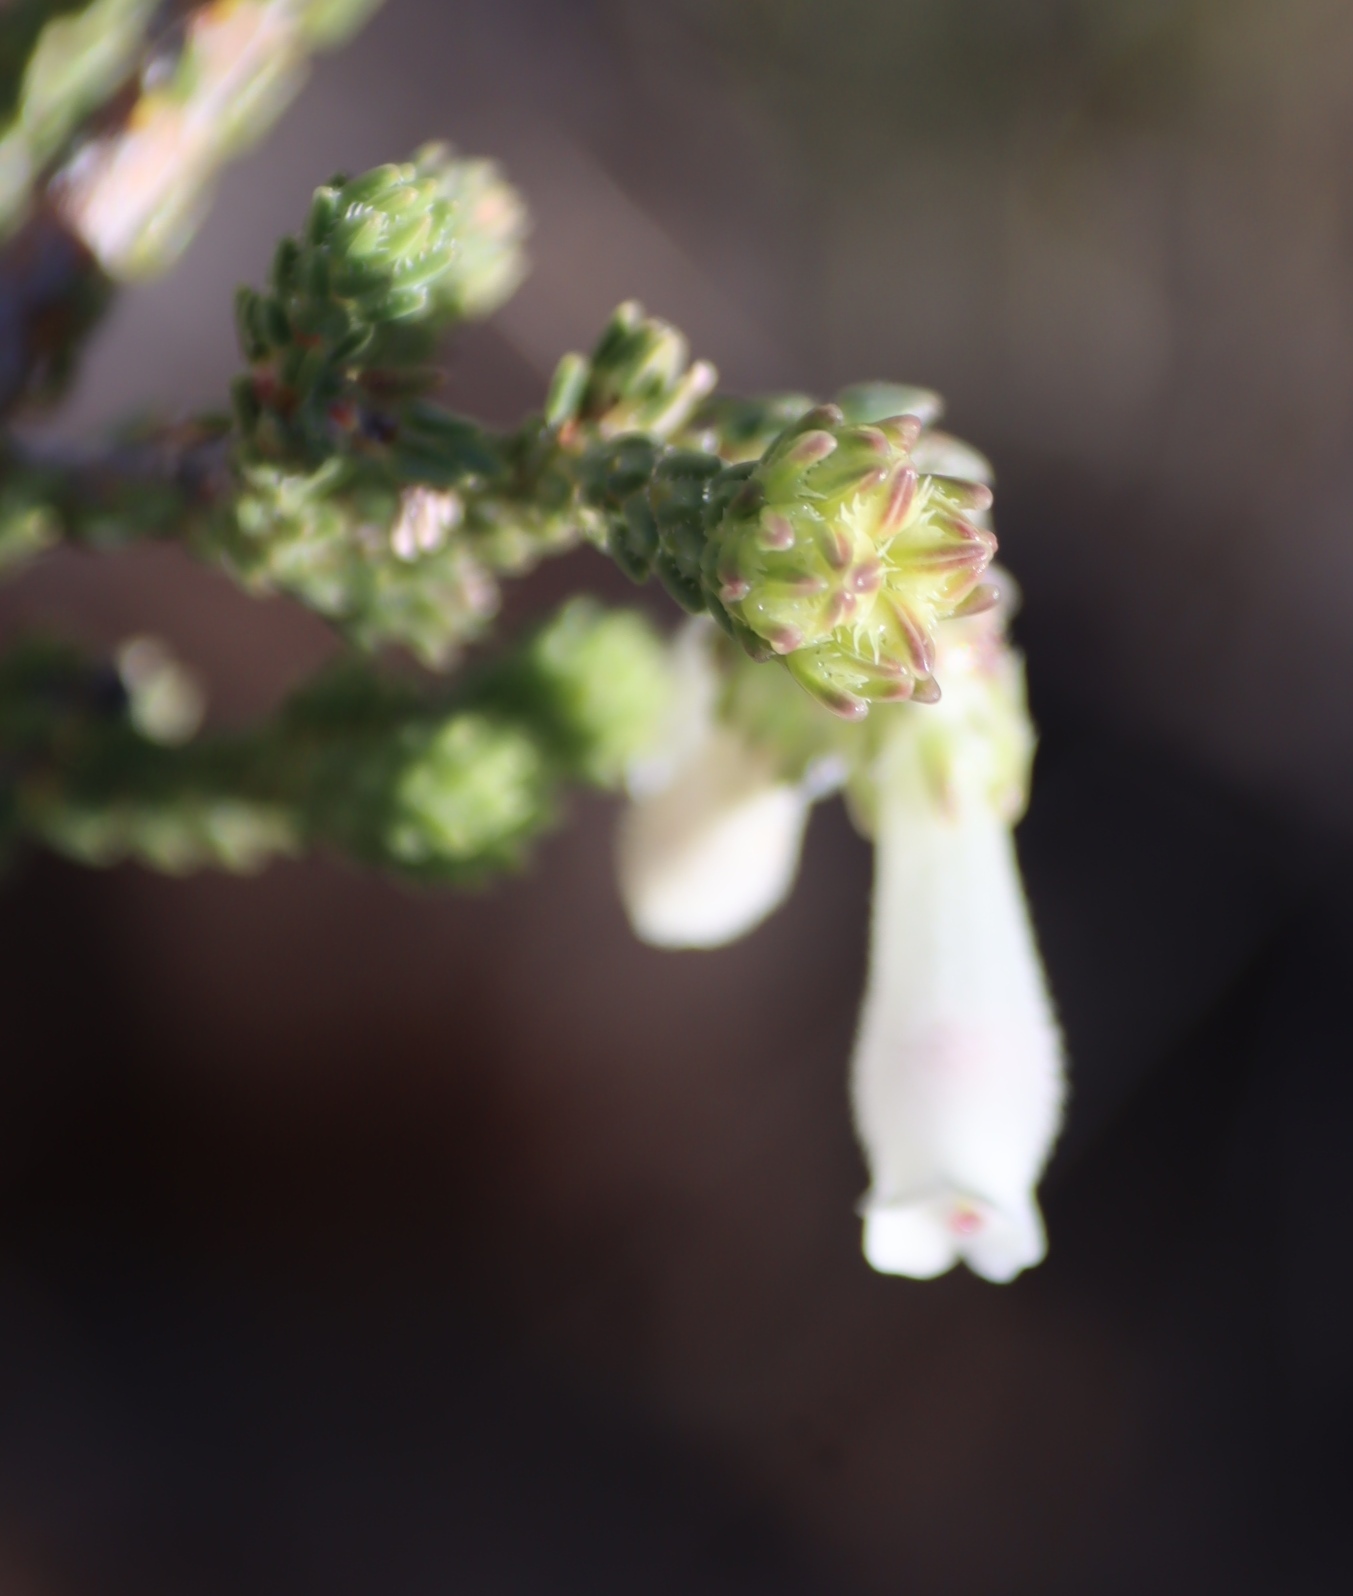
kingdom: Plantae
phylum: Tracheophyta
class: Magnoliopsida
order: Ericales
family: Ericaceae
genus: Erica
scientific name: Erica pectinifolia
